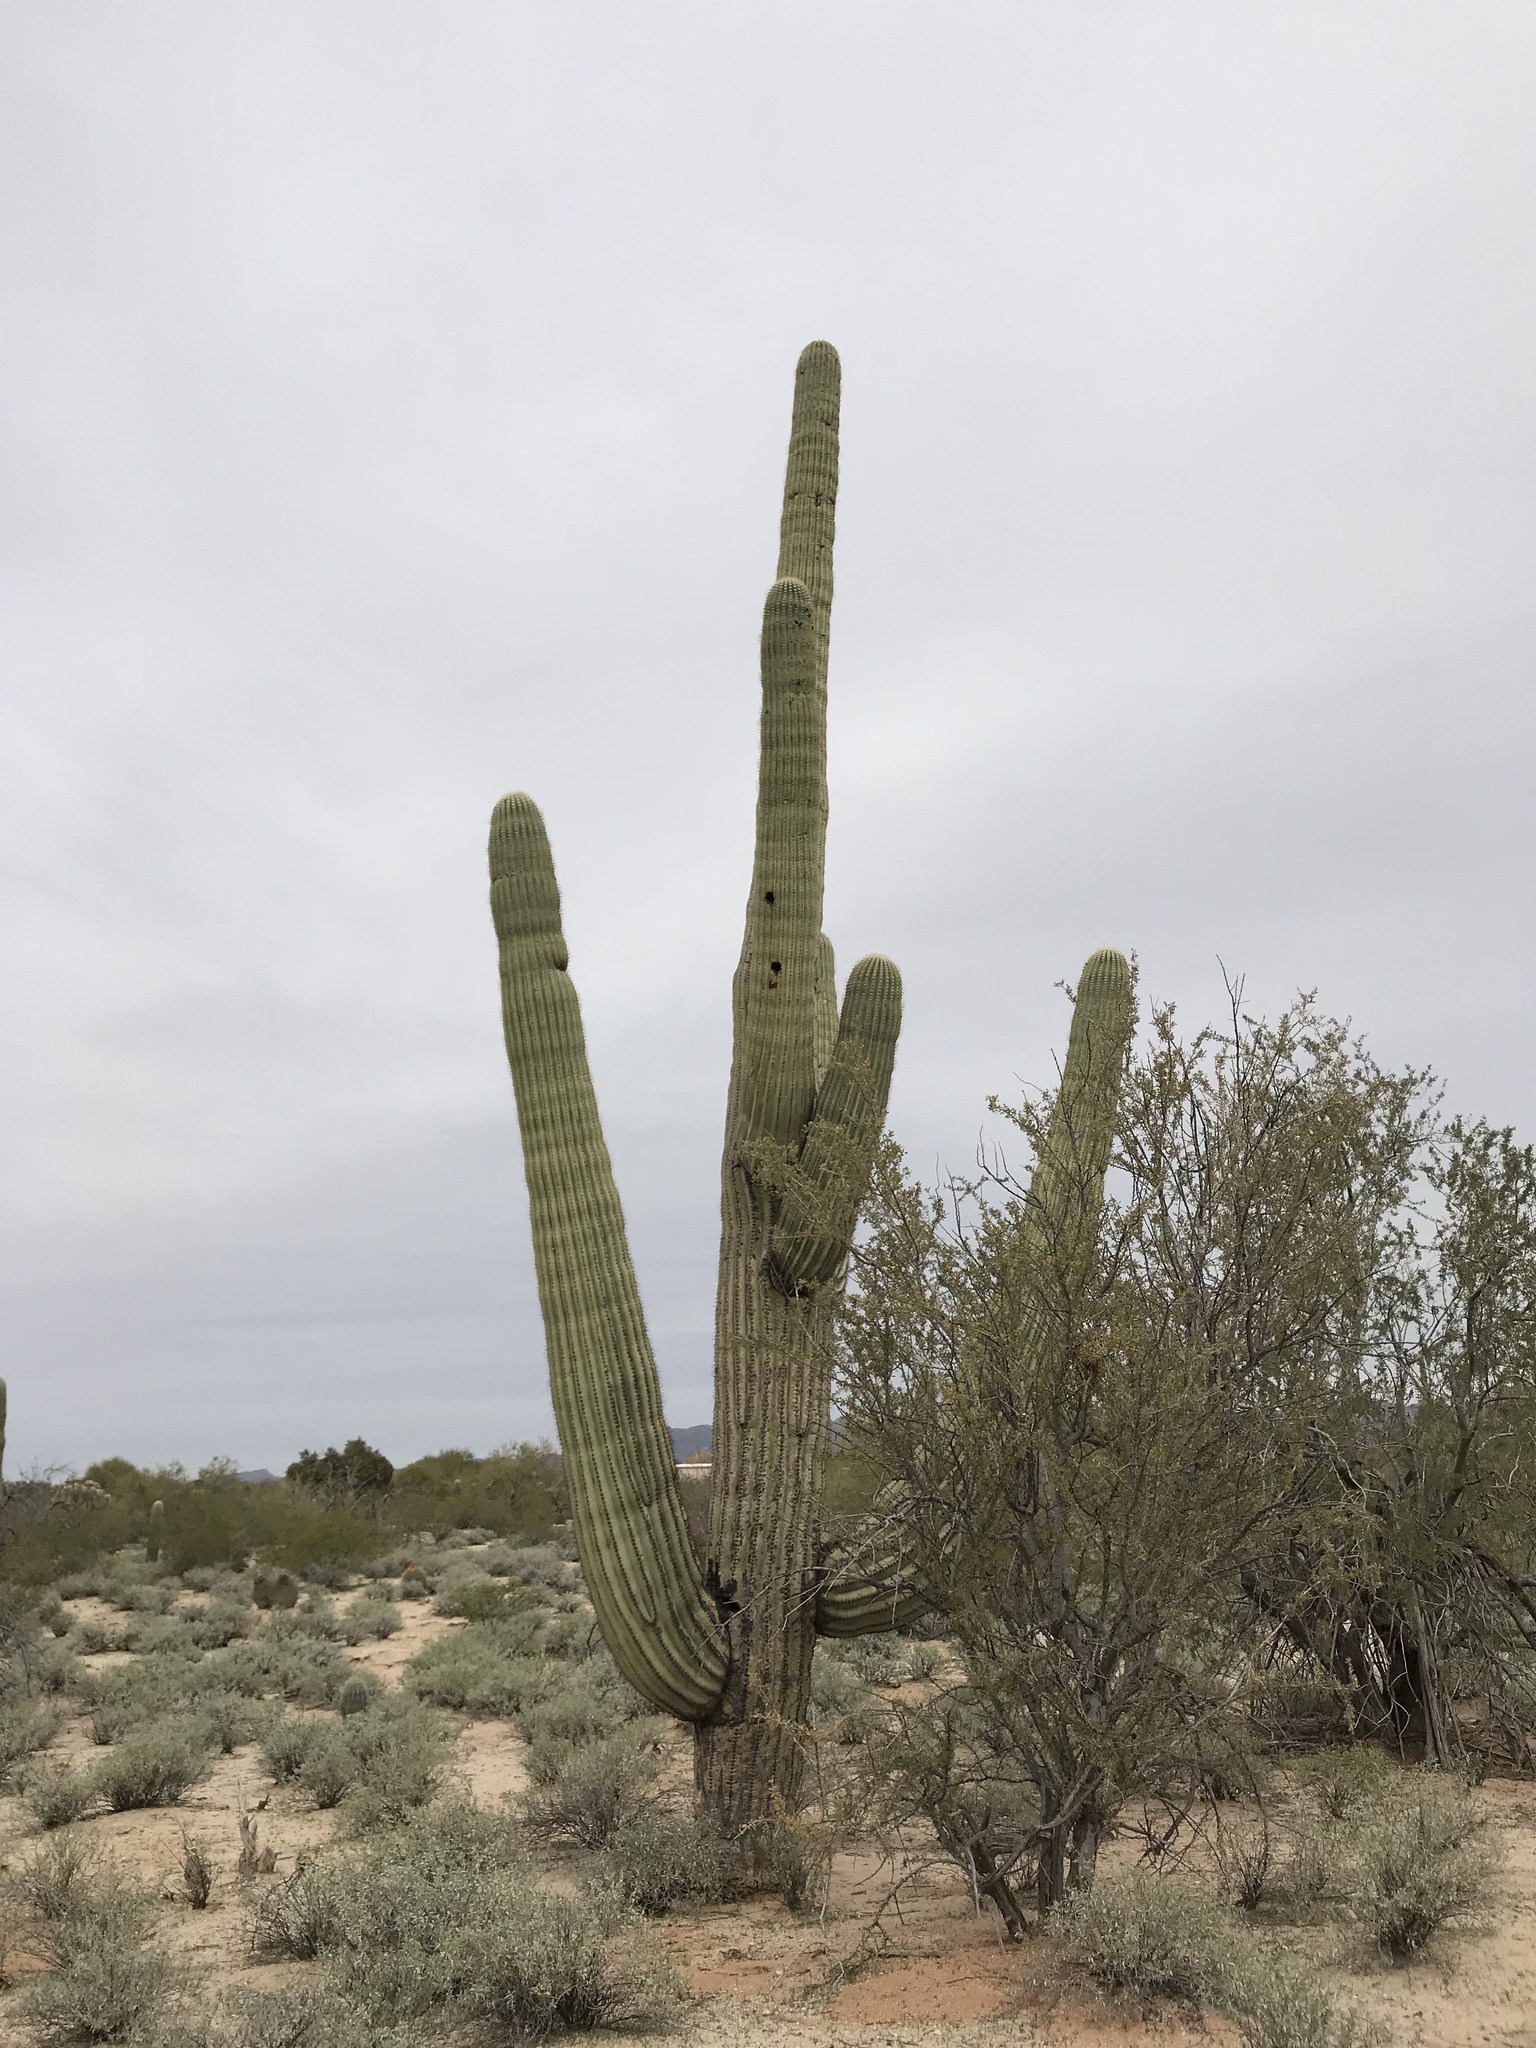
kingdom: Plantae
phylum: Tracheophyta
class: Magnoliopsida
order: Caryophyllales
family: Cactaceae
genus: Carnegiea
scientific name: Carnegiea gigantea
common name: Saguaro
